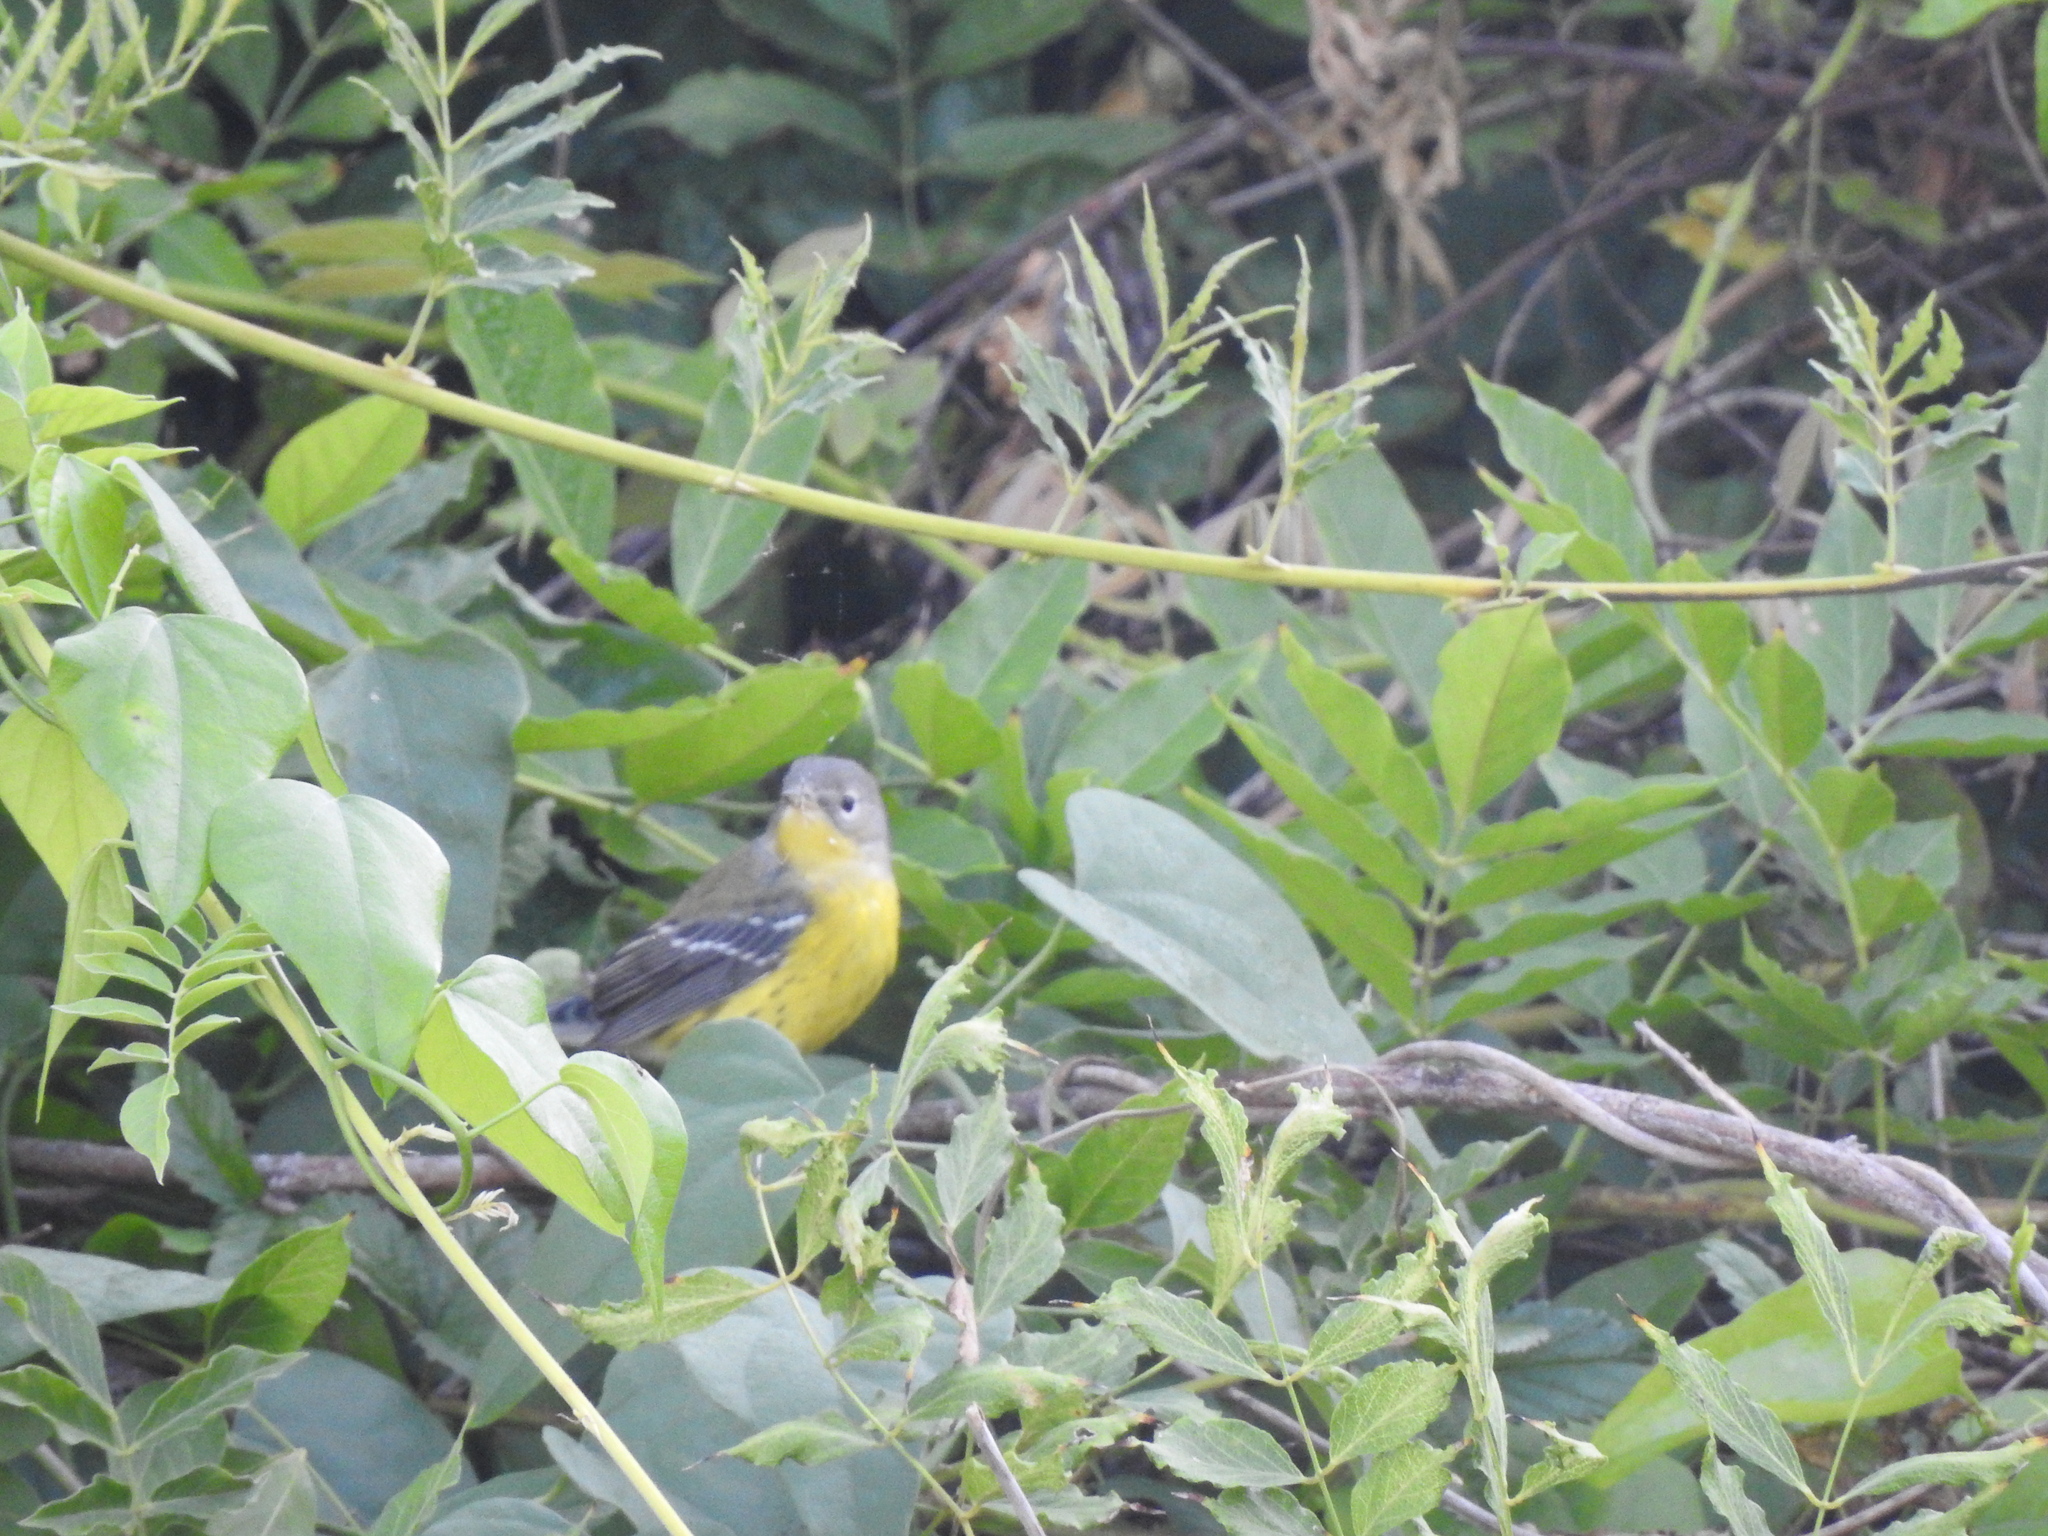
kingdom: Animalia
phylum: Chordata
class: Aves
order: Passeriformes
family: Parulidae
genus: Setophaga
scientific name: Setophaga magnolia
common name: Magnolia warbler
